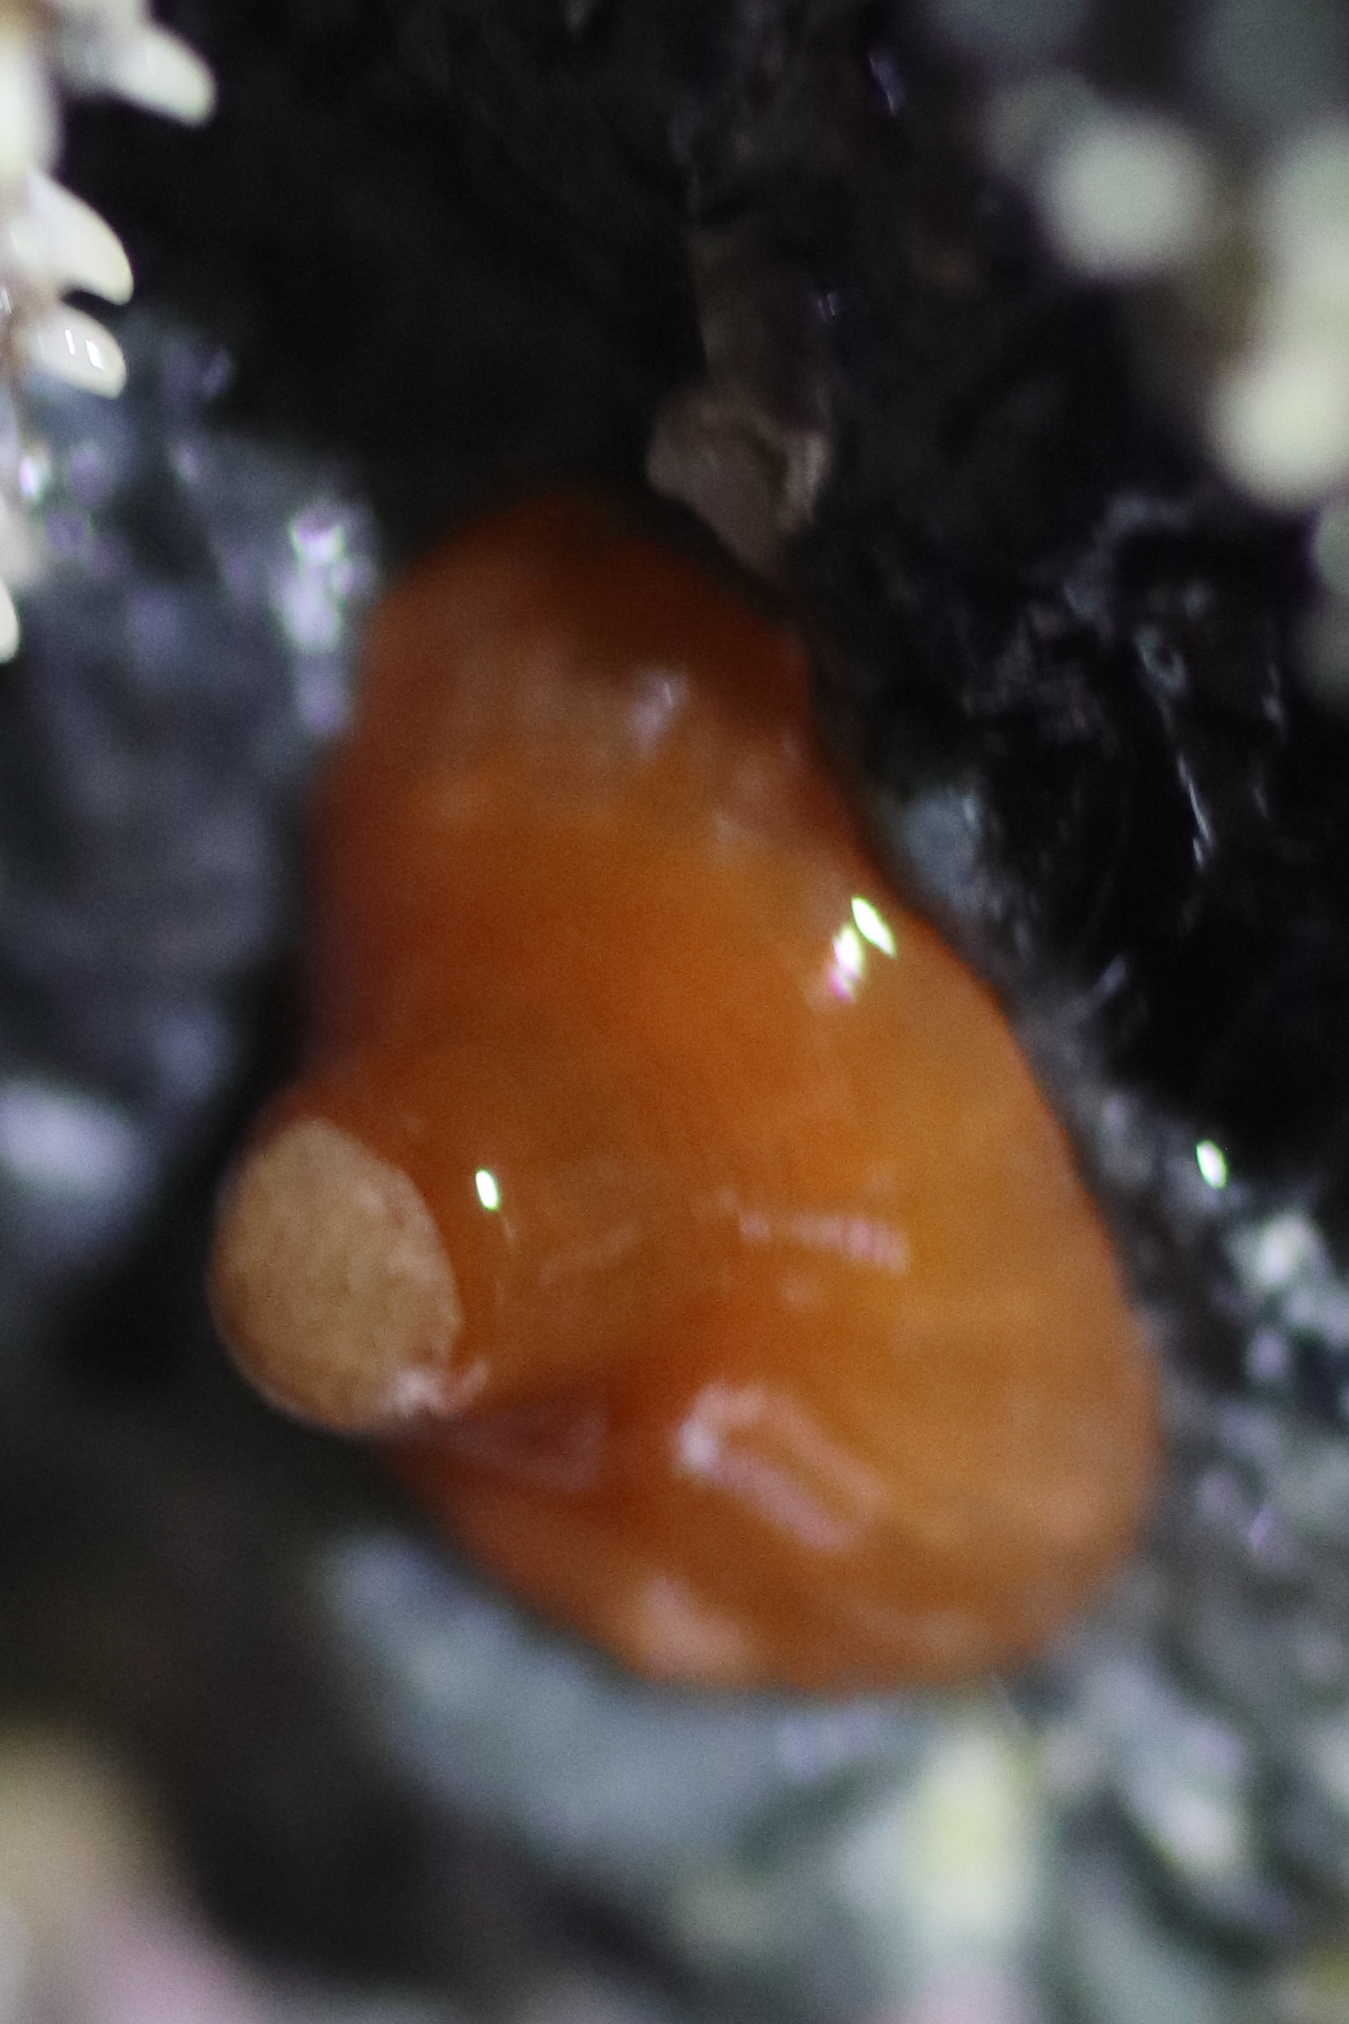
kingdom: Animalia
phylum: Cnidaria
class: Anthozoa
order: Actiniaria
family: Metridiidae
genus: Metridium
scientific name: Metridium senile
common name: Clonal plumose anemone
